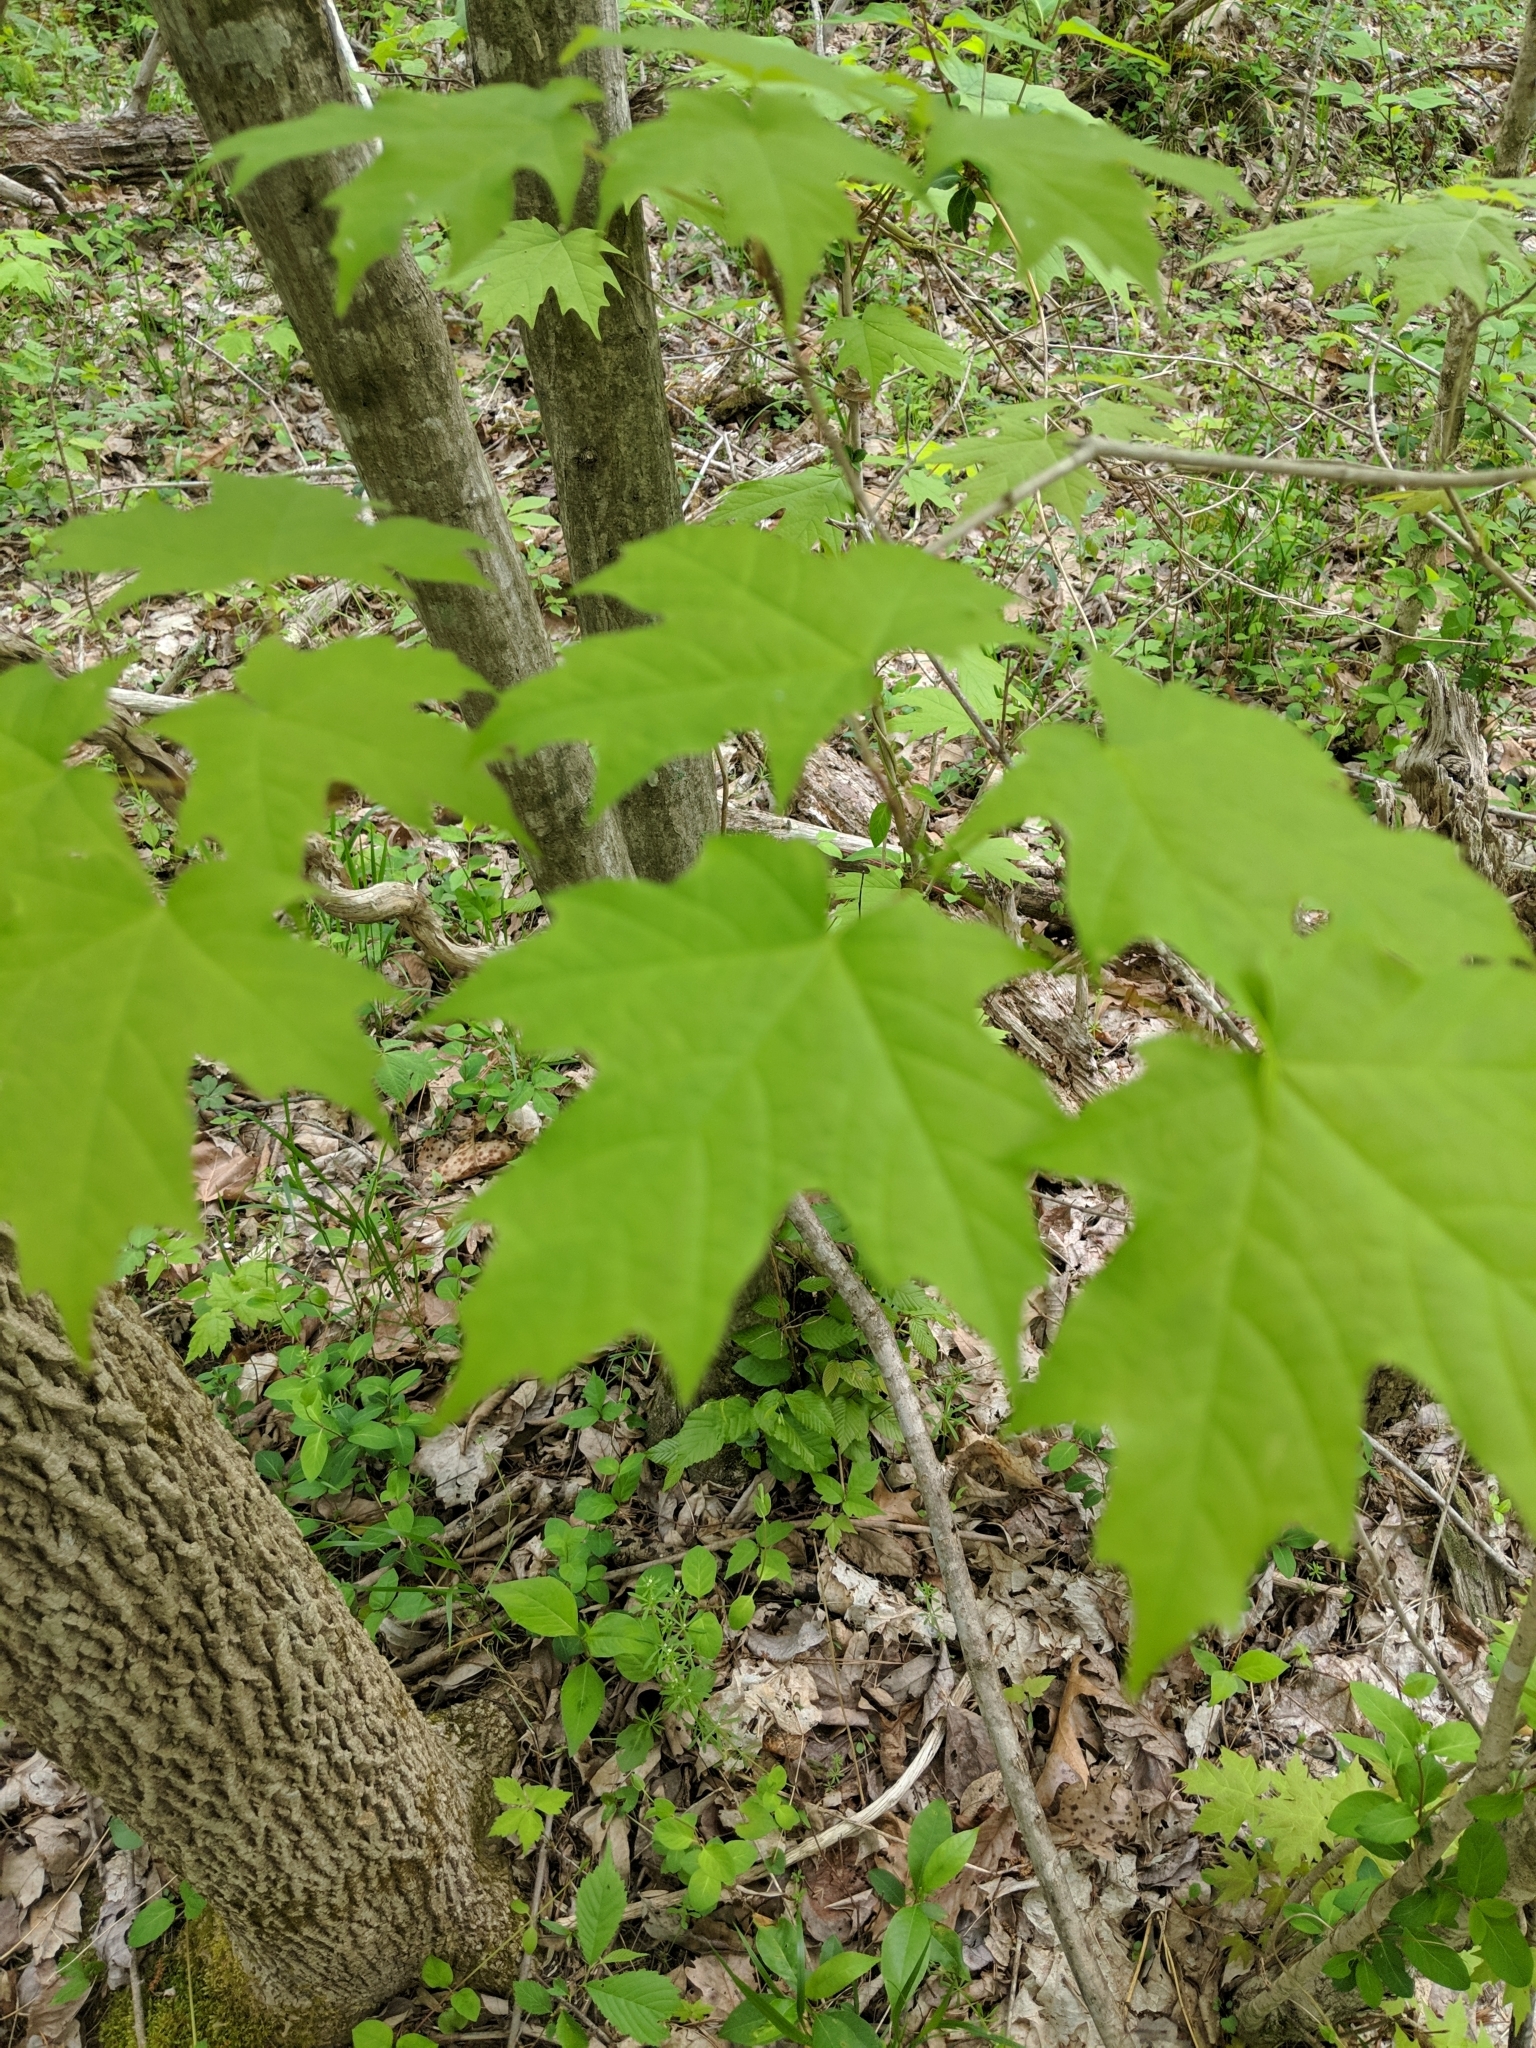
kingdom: Plantae
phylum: Tracheophyta
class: Magnoliopsida
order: Sapindales
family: Sapindaceae
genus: Acer
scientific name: Acer saccharum
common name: Sugar maple
